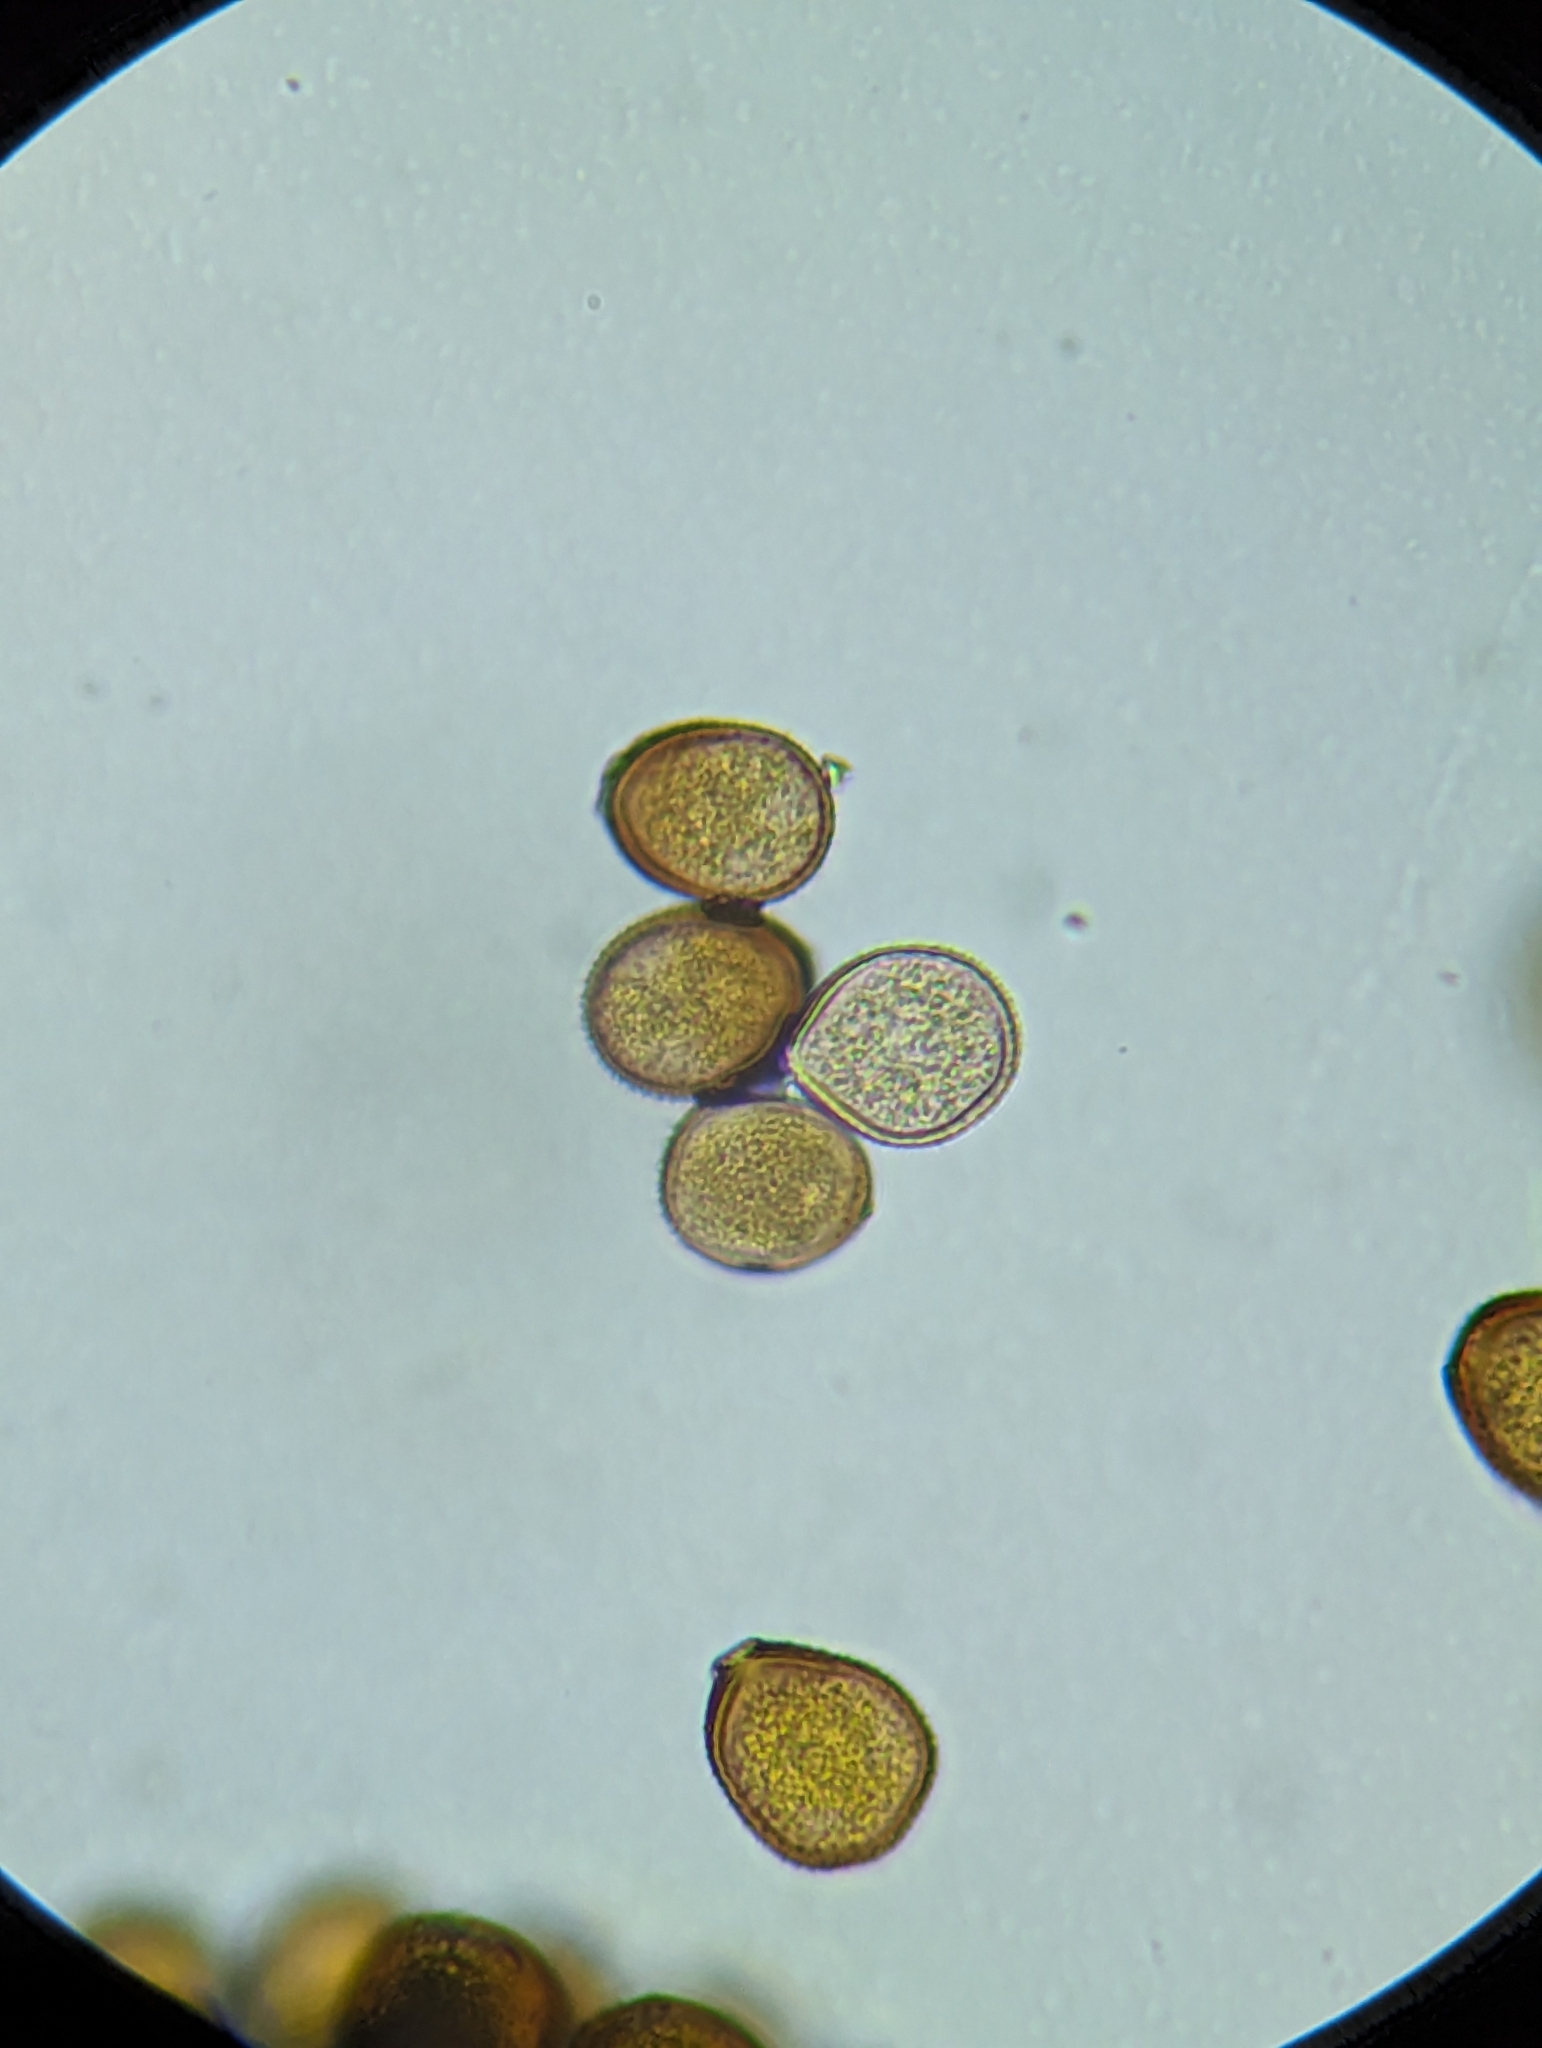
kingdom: Fungi
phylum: Basidiomycota
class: Pucciniomycetes
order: Pucciniales
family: Pucciniaceae
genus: Puccinia
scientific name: Puccinia helianthi-mollis
